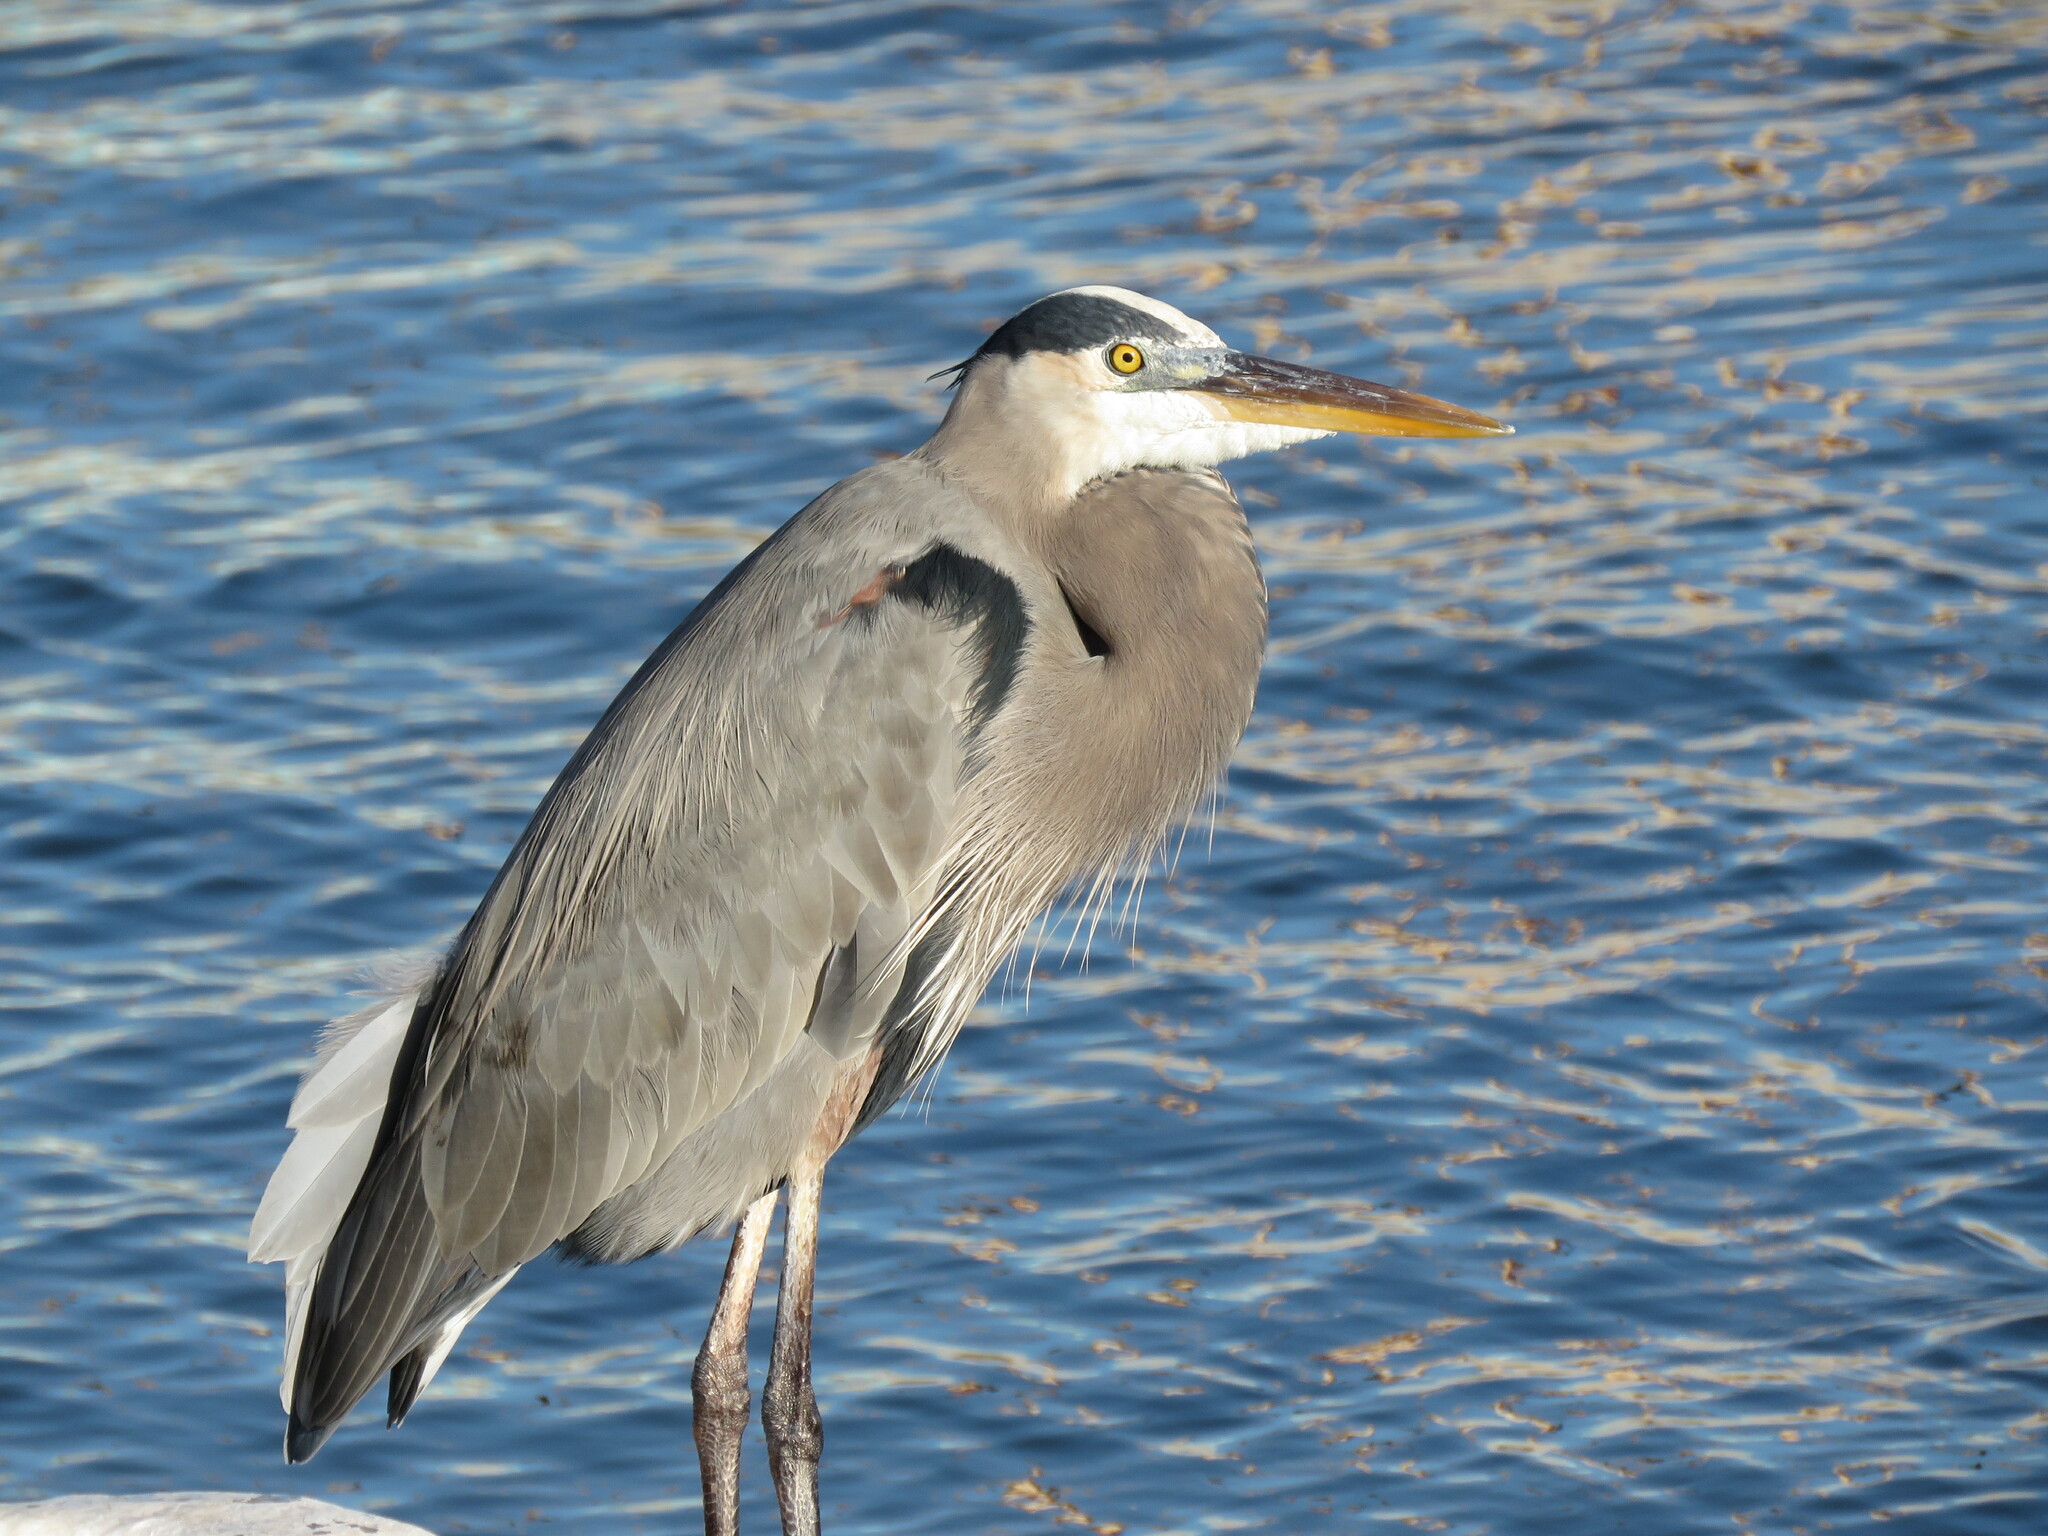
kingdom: Animalia
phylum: Chordata
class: Aves
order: Pelecaniformes
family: Ardeidae
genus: Ardea
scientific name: Ardea herodias
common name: Great blue heron
